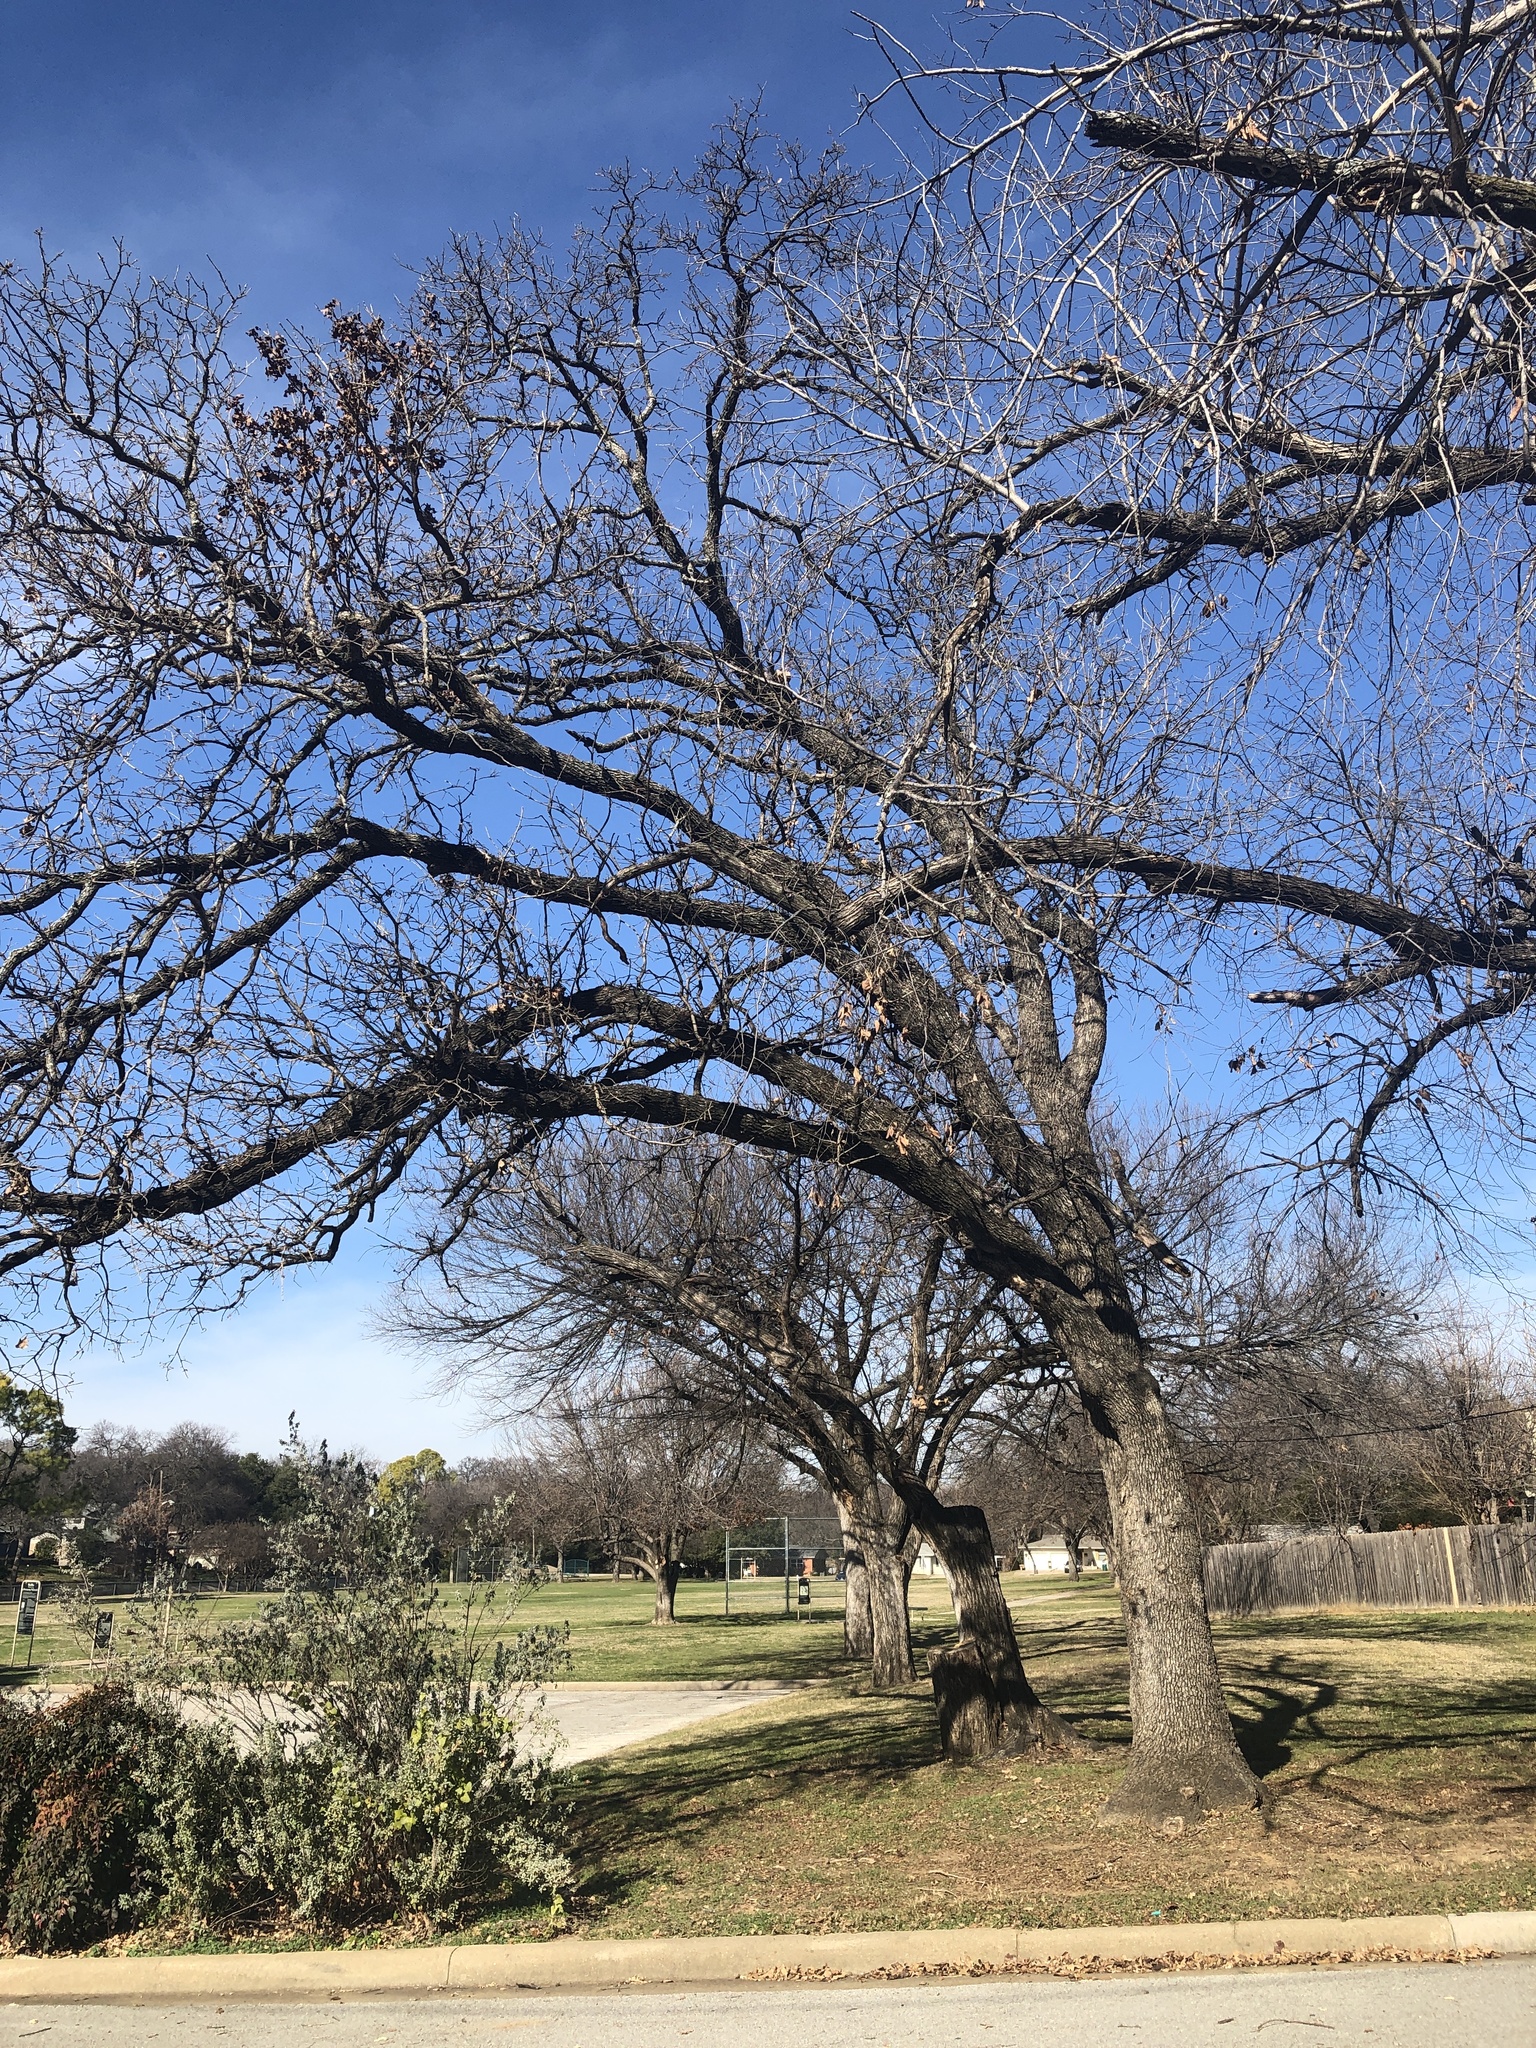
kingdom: Plantae
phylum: Tracheophyta
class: Magnoliopsida
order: Fagales
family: Fagaceae
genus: Quercus
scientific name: Quercus stellata
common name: Post oak
